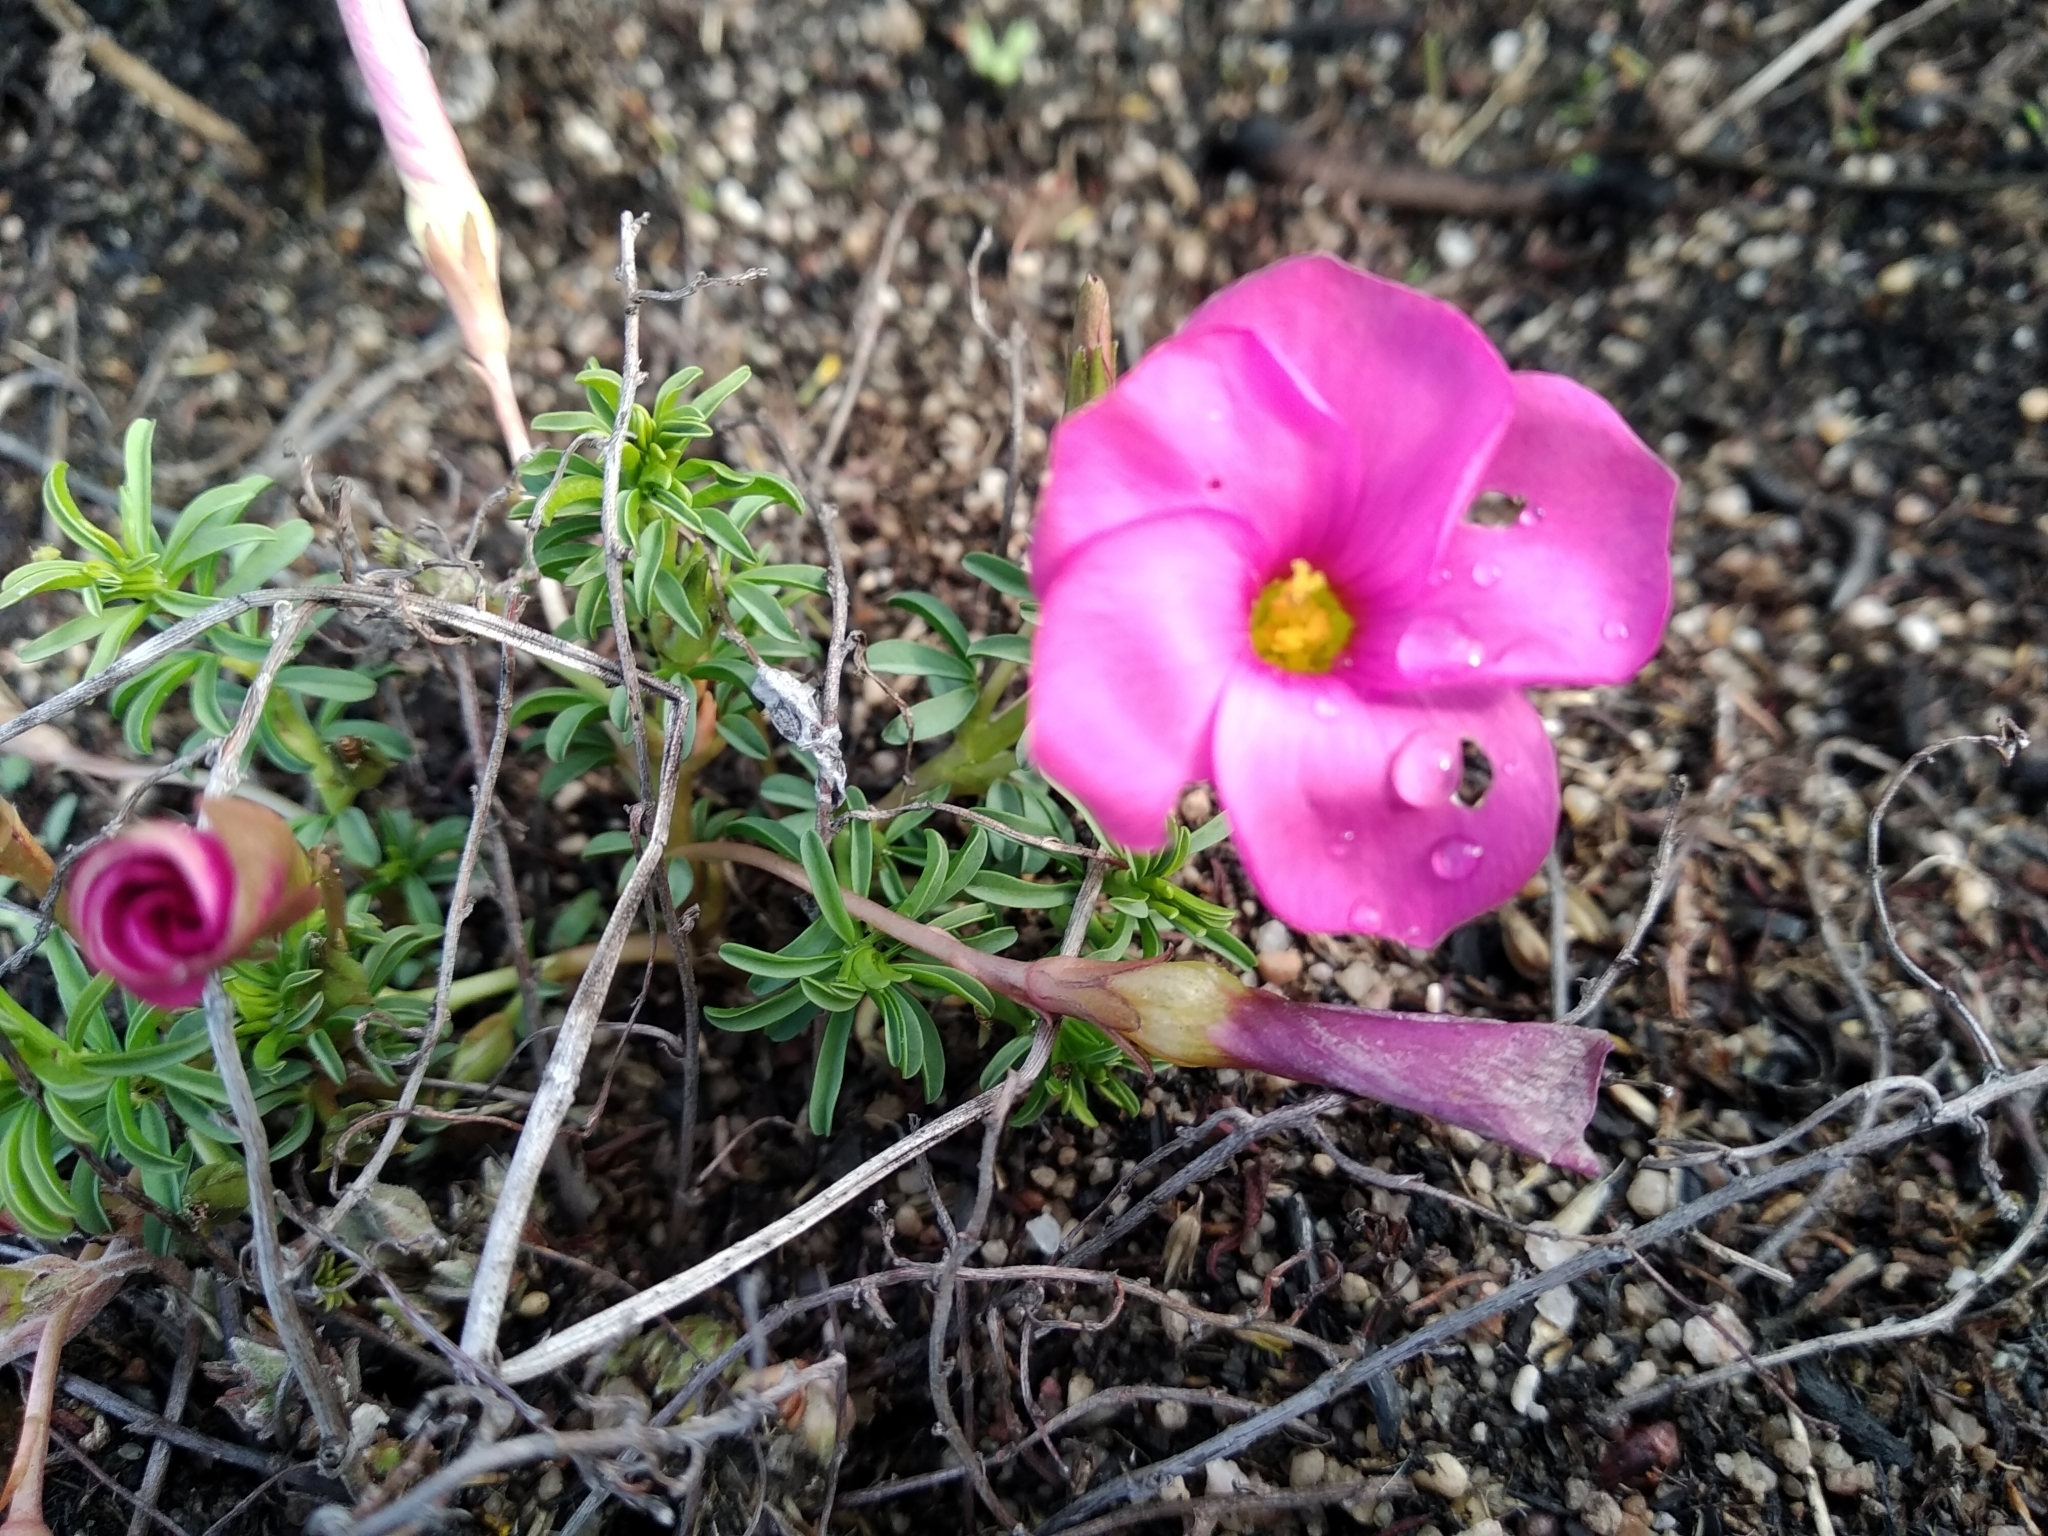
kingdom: Plantae
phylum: Tracheophyta
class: Magnoliopsida
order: Oxalidales
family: Oxalidaceae
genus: Oxalis
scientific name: Oxalis hirta
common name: Tropical woodsorrel
